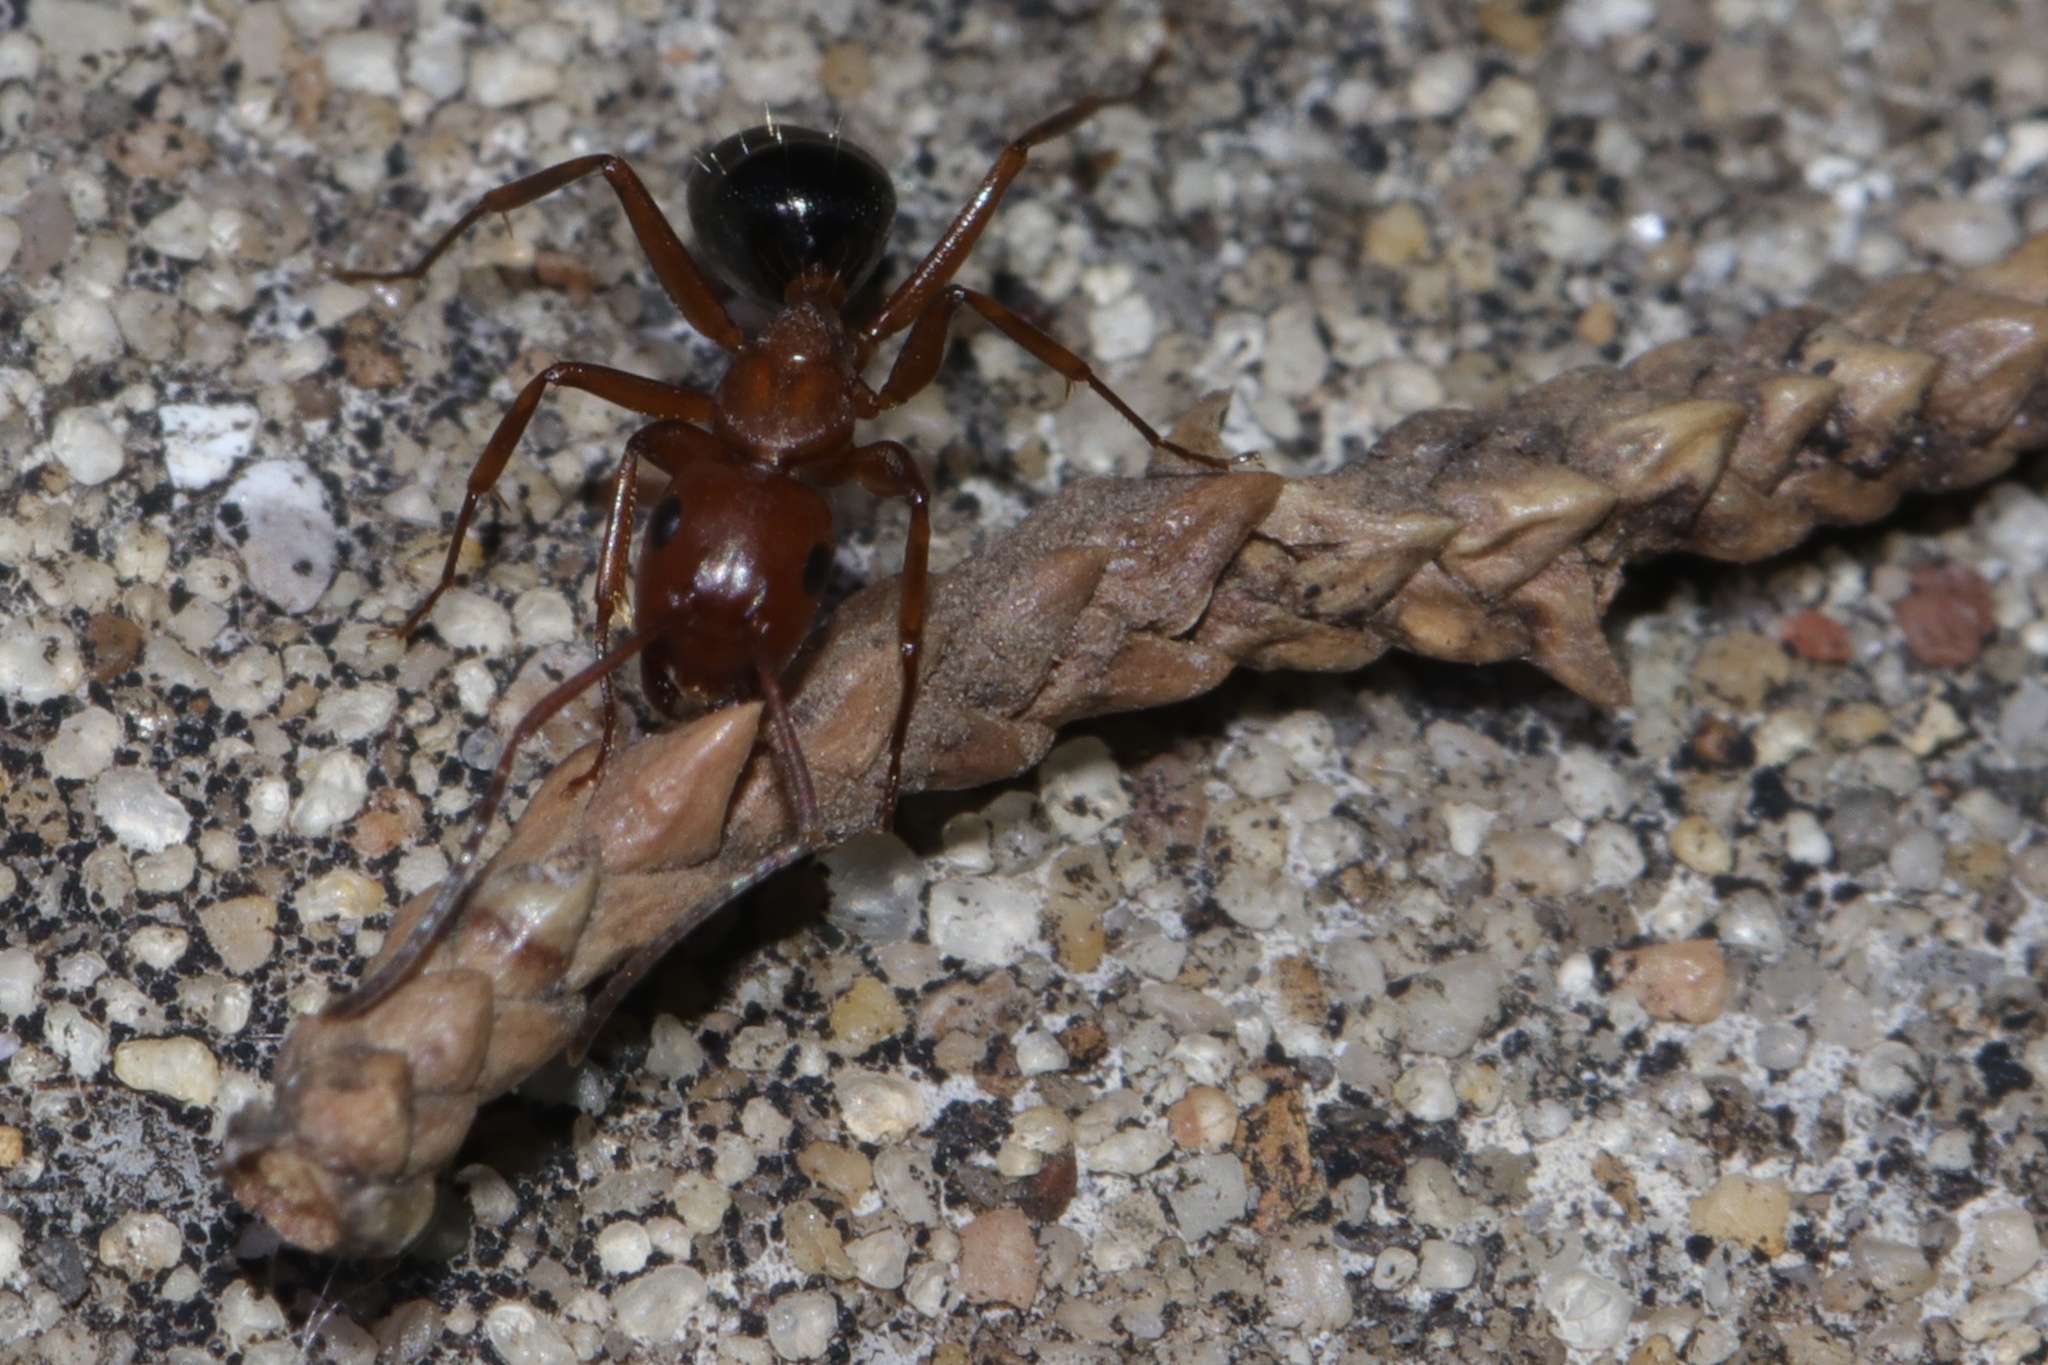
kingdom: Animalia
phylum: Arthropoda
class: Insecta
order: Hymenoptera
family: Formicidae
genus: Camponotus
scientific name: Camponotus decipiens
